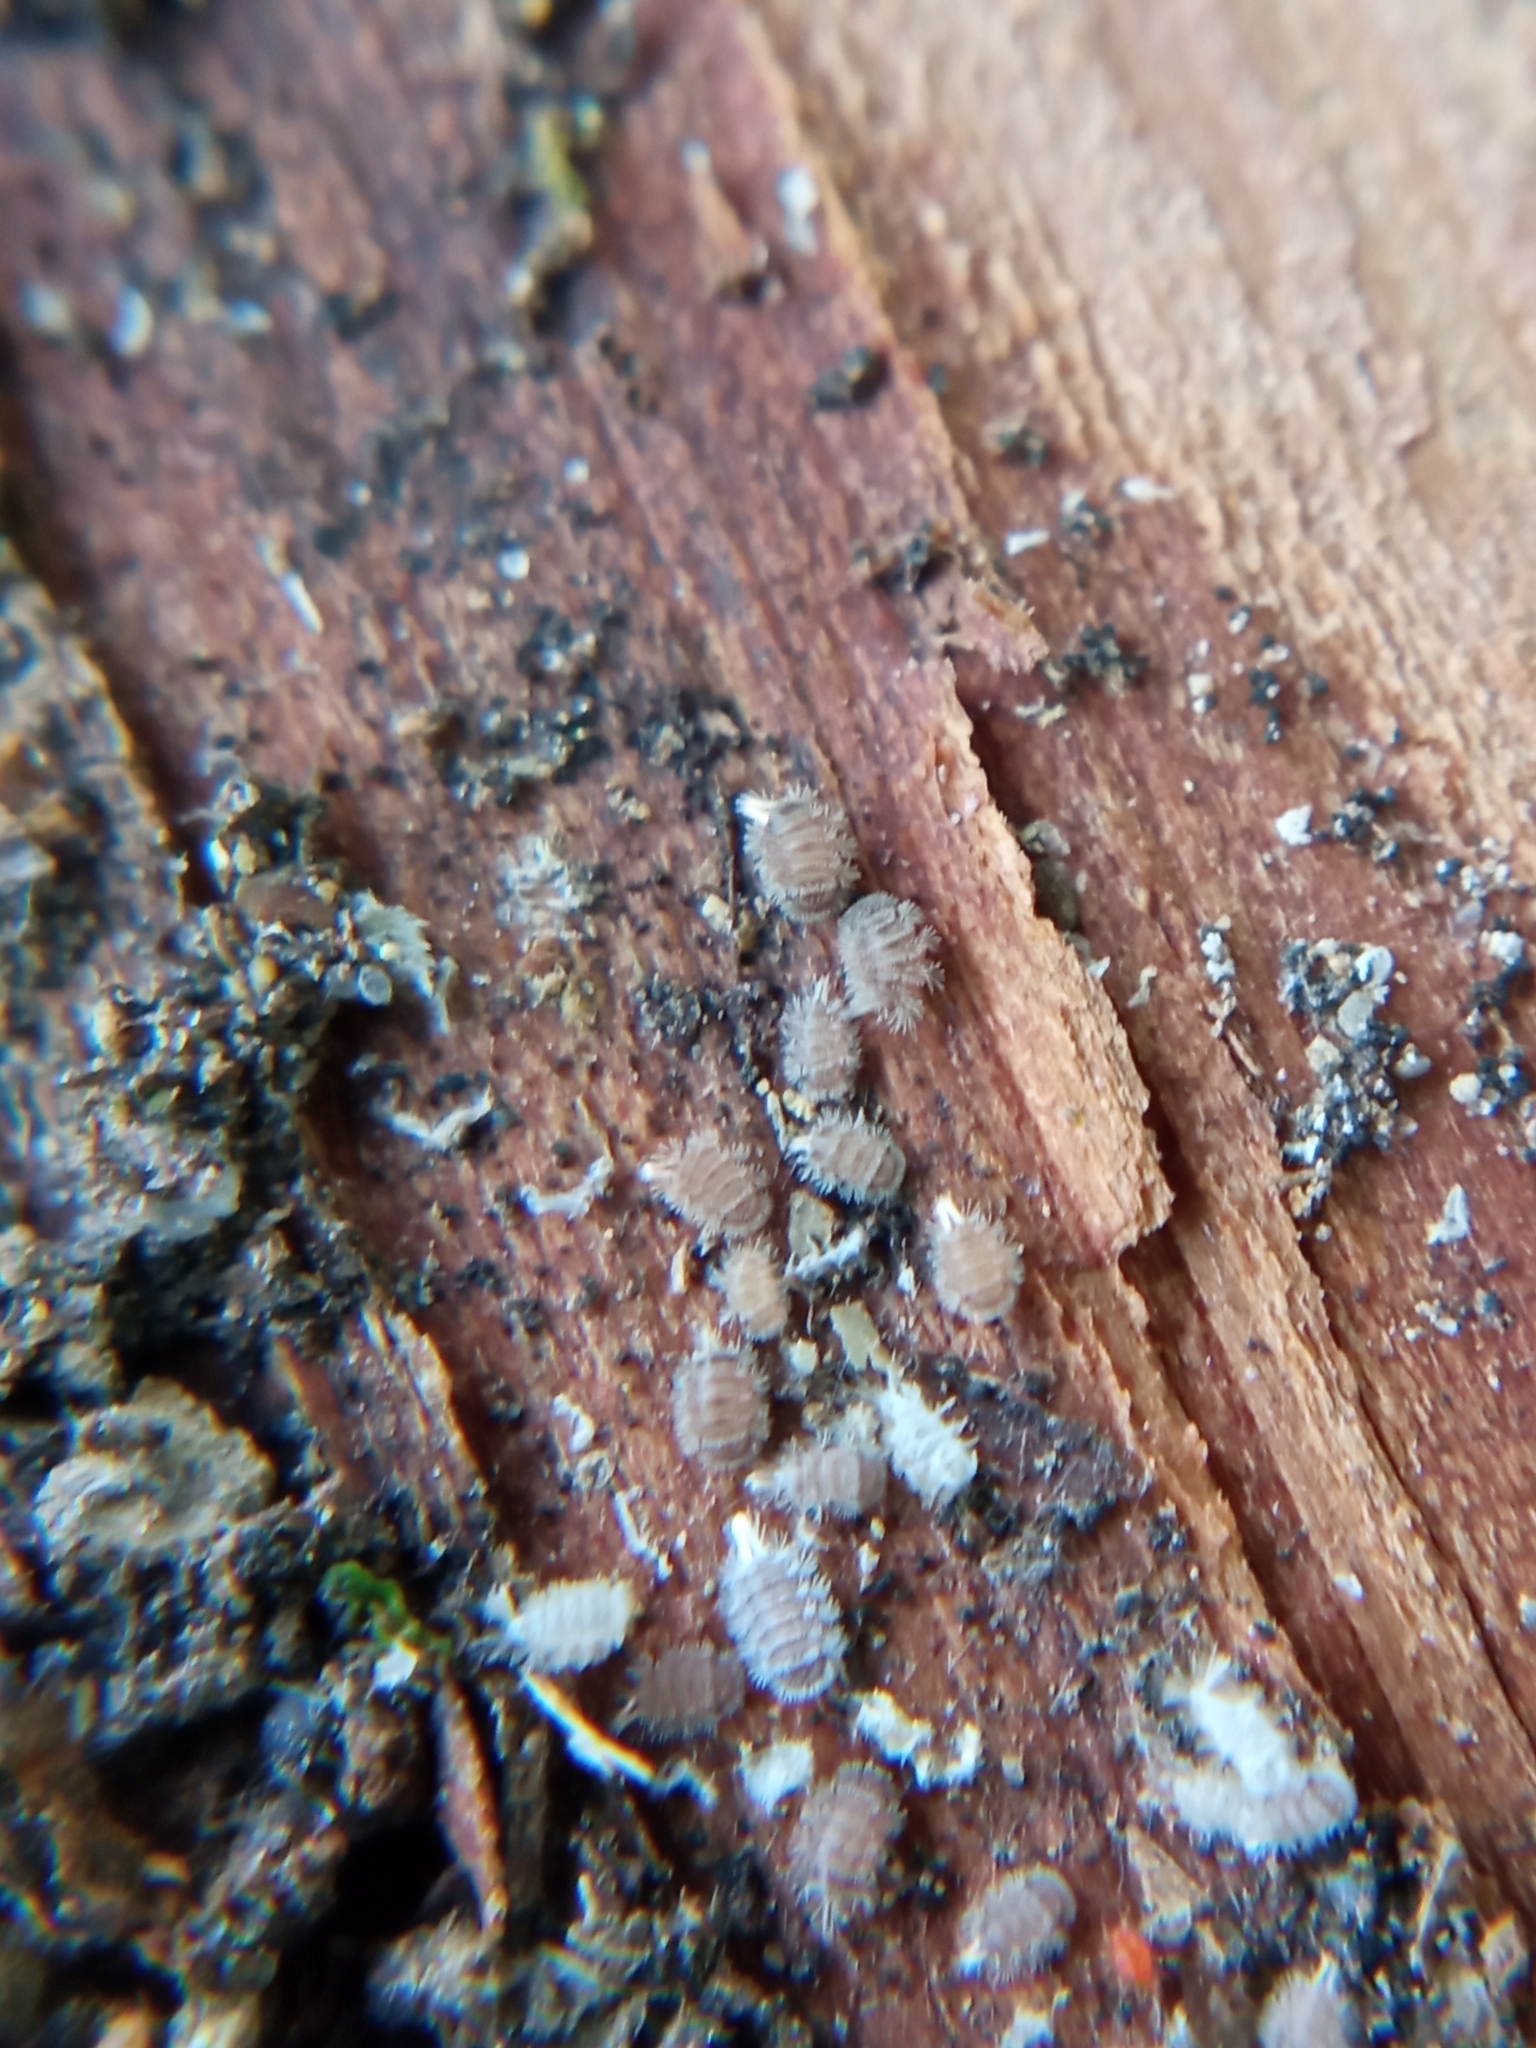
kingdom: Animalia
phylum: Arthropoda
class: Diplopoda
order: Polyxenida
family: Polyxenidae
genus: Polyxenus
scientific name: Polyxenus lagurus
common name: Bristly millipede
